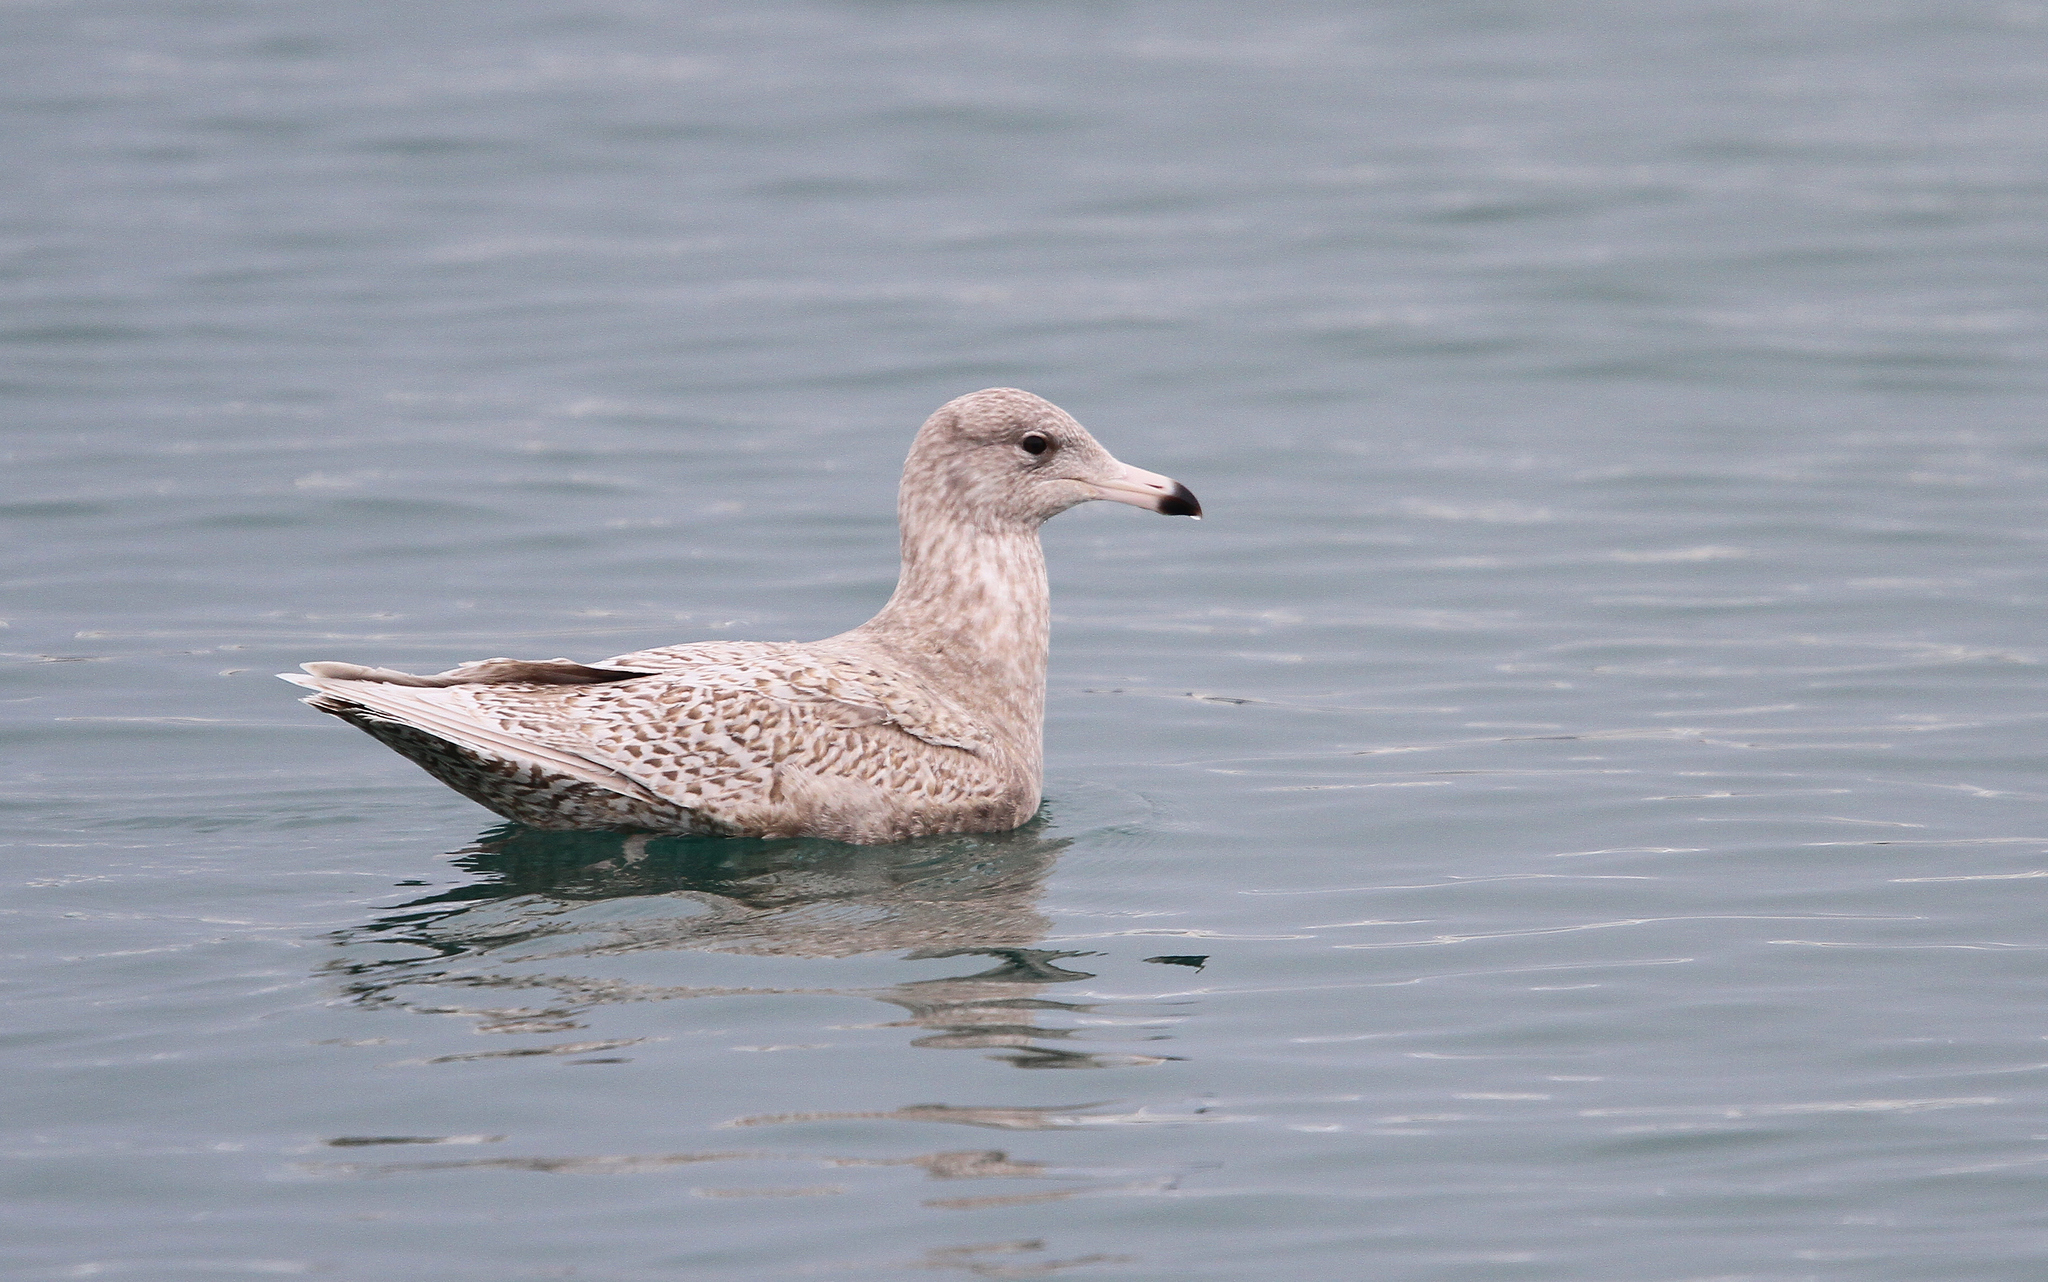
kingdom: Animalia
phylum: Chordata
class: Aves
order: Charadriiformes
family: Laridae
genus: Larus
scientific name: Larus hyperboreus
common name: Glaucous gull
